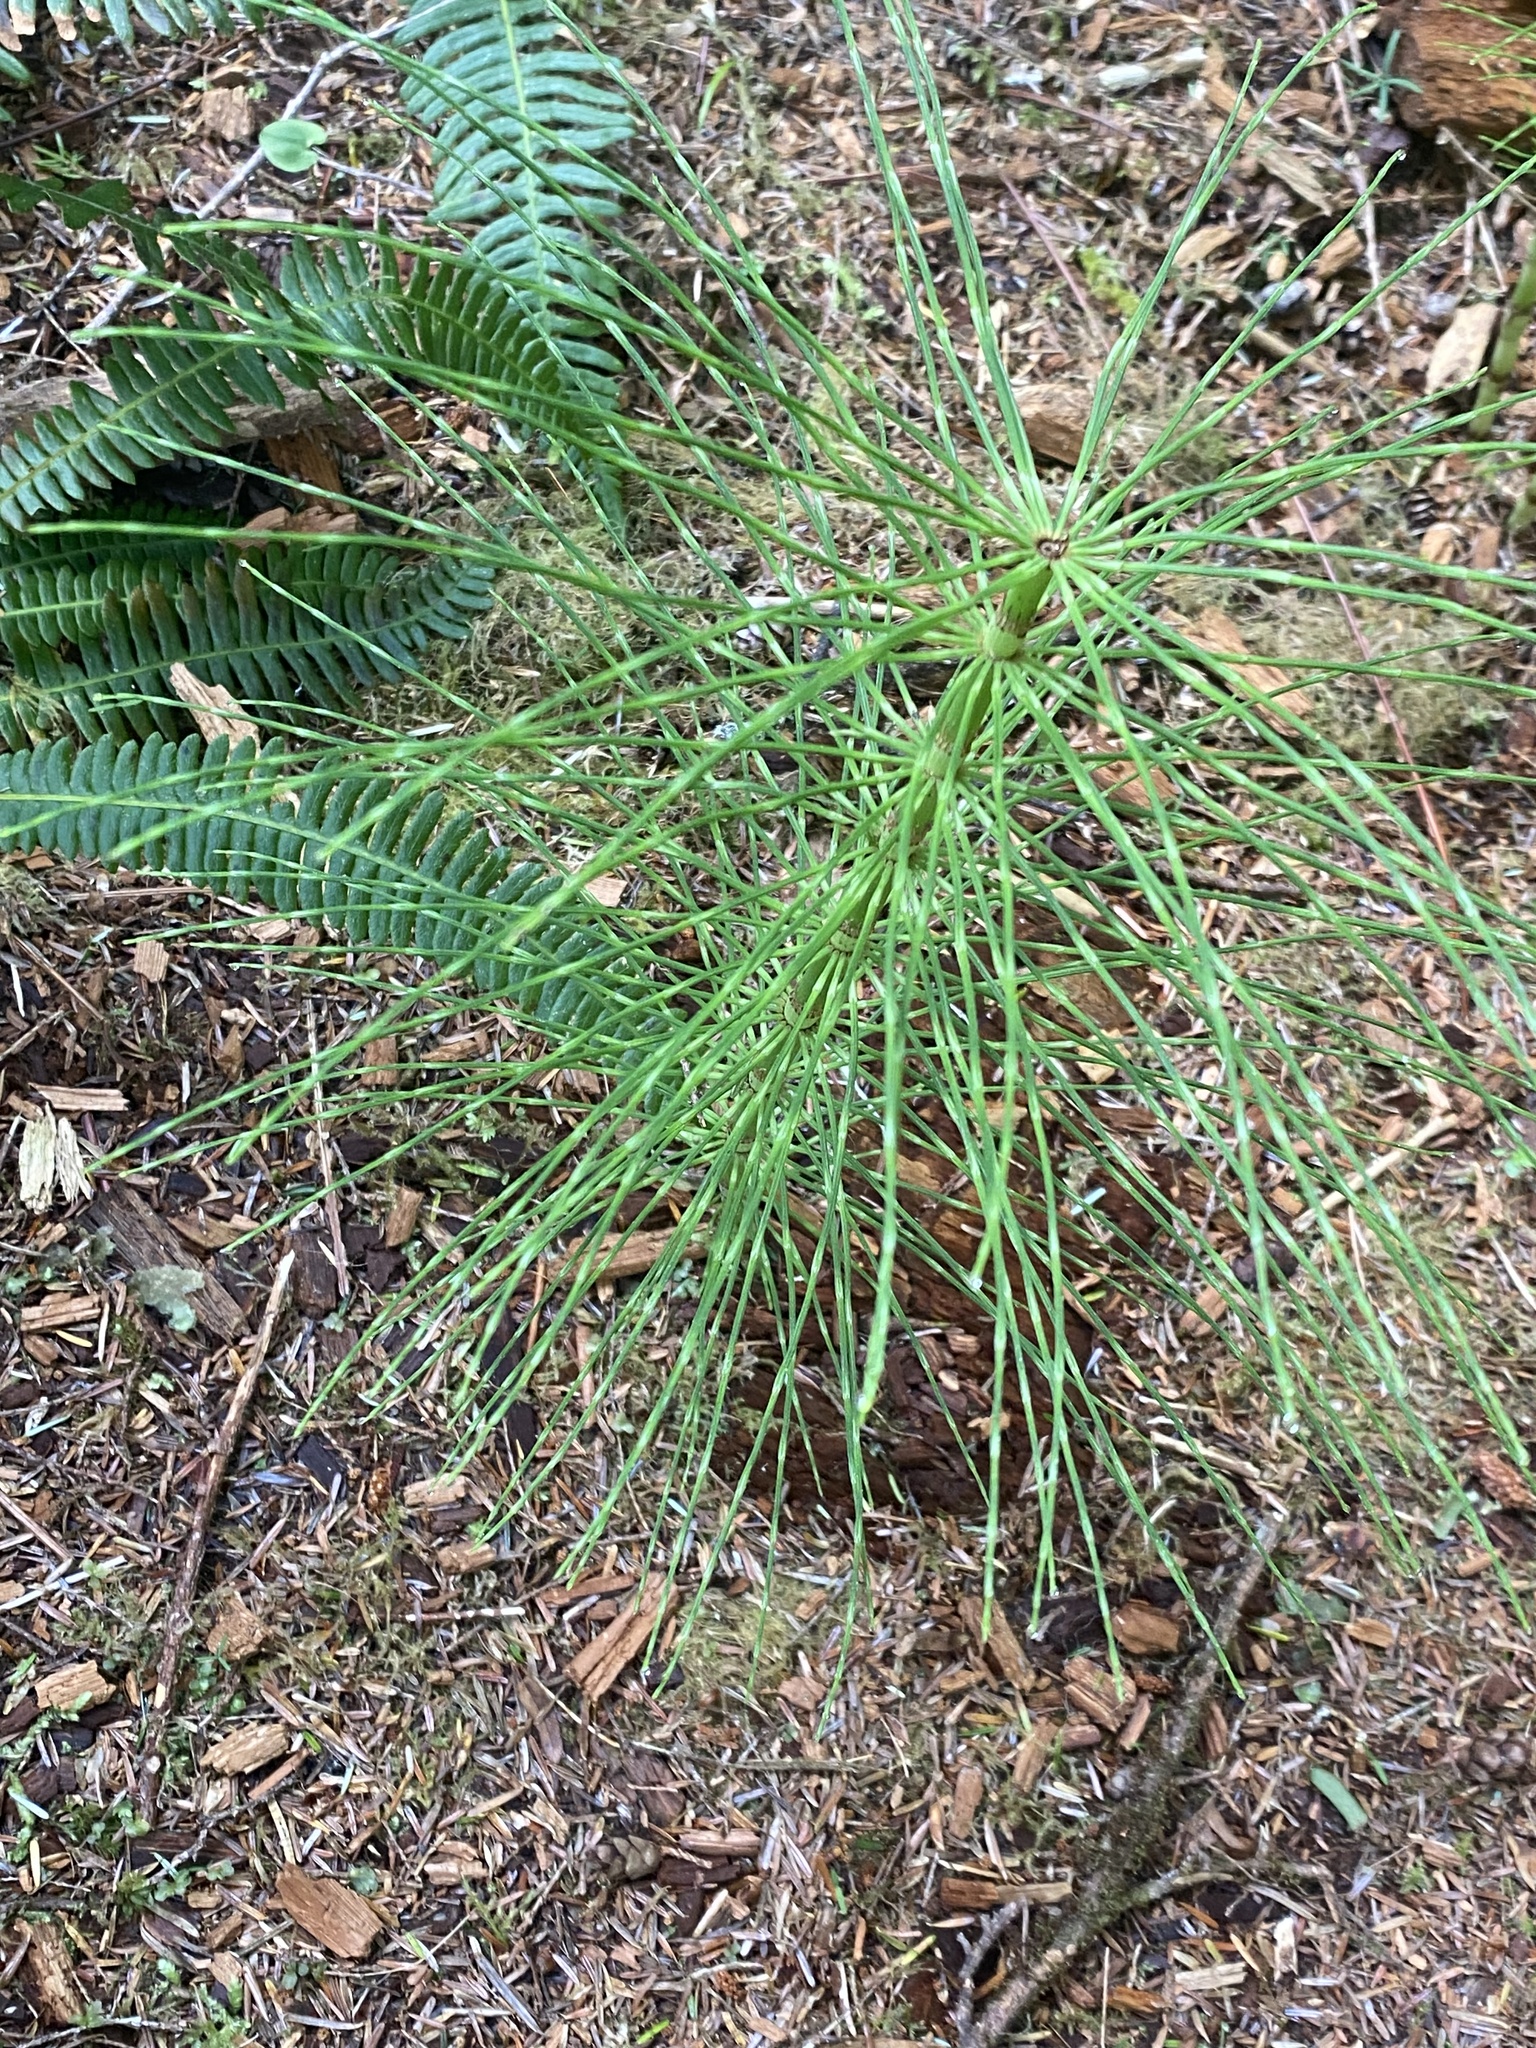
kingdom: Plantae
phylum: Tracheophyta
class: Polypodiopsida
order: Equisetales
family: Equisetaceae
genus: Equisetum
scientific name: Equisetum telmateia
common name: Great horsetail
